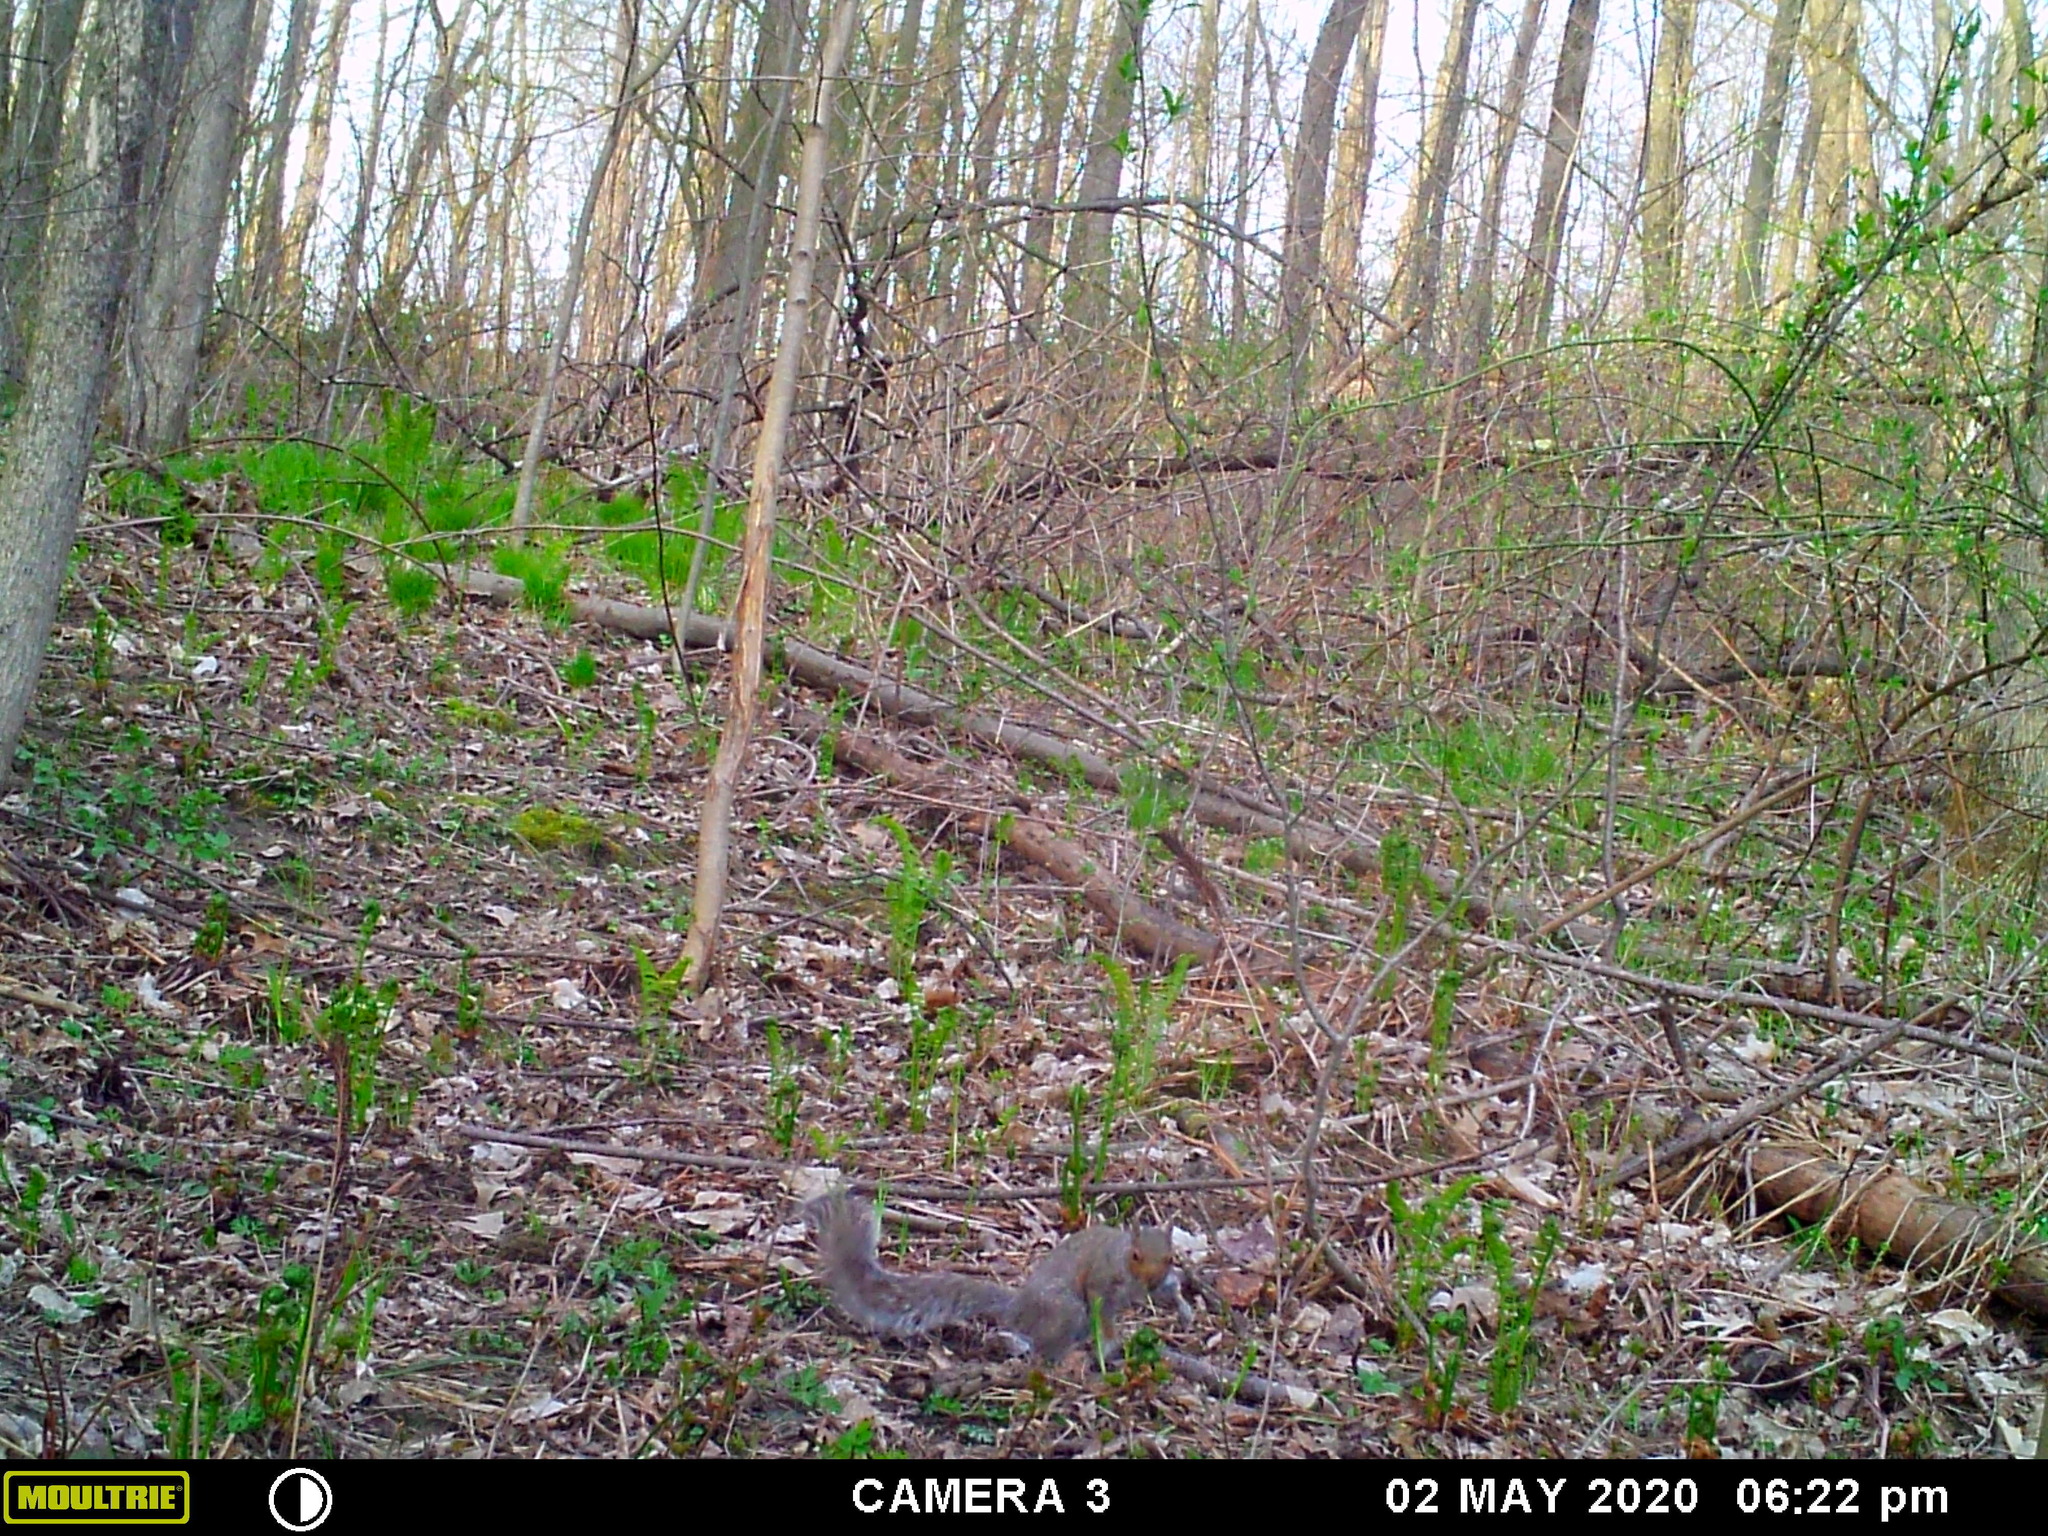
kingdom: Animalia
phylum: Chordata
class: Mammalia
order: Rodentia
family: Sciuridae
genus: Sciurus
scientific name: Sciurus carolinensis
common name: Eastern gray squirrel
